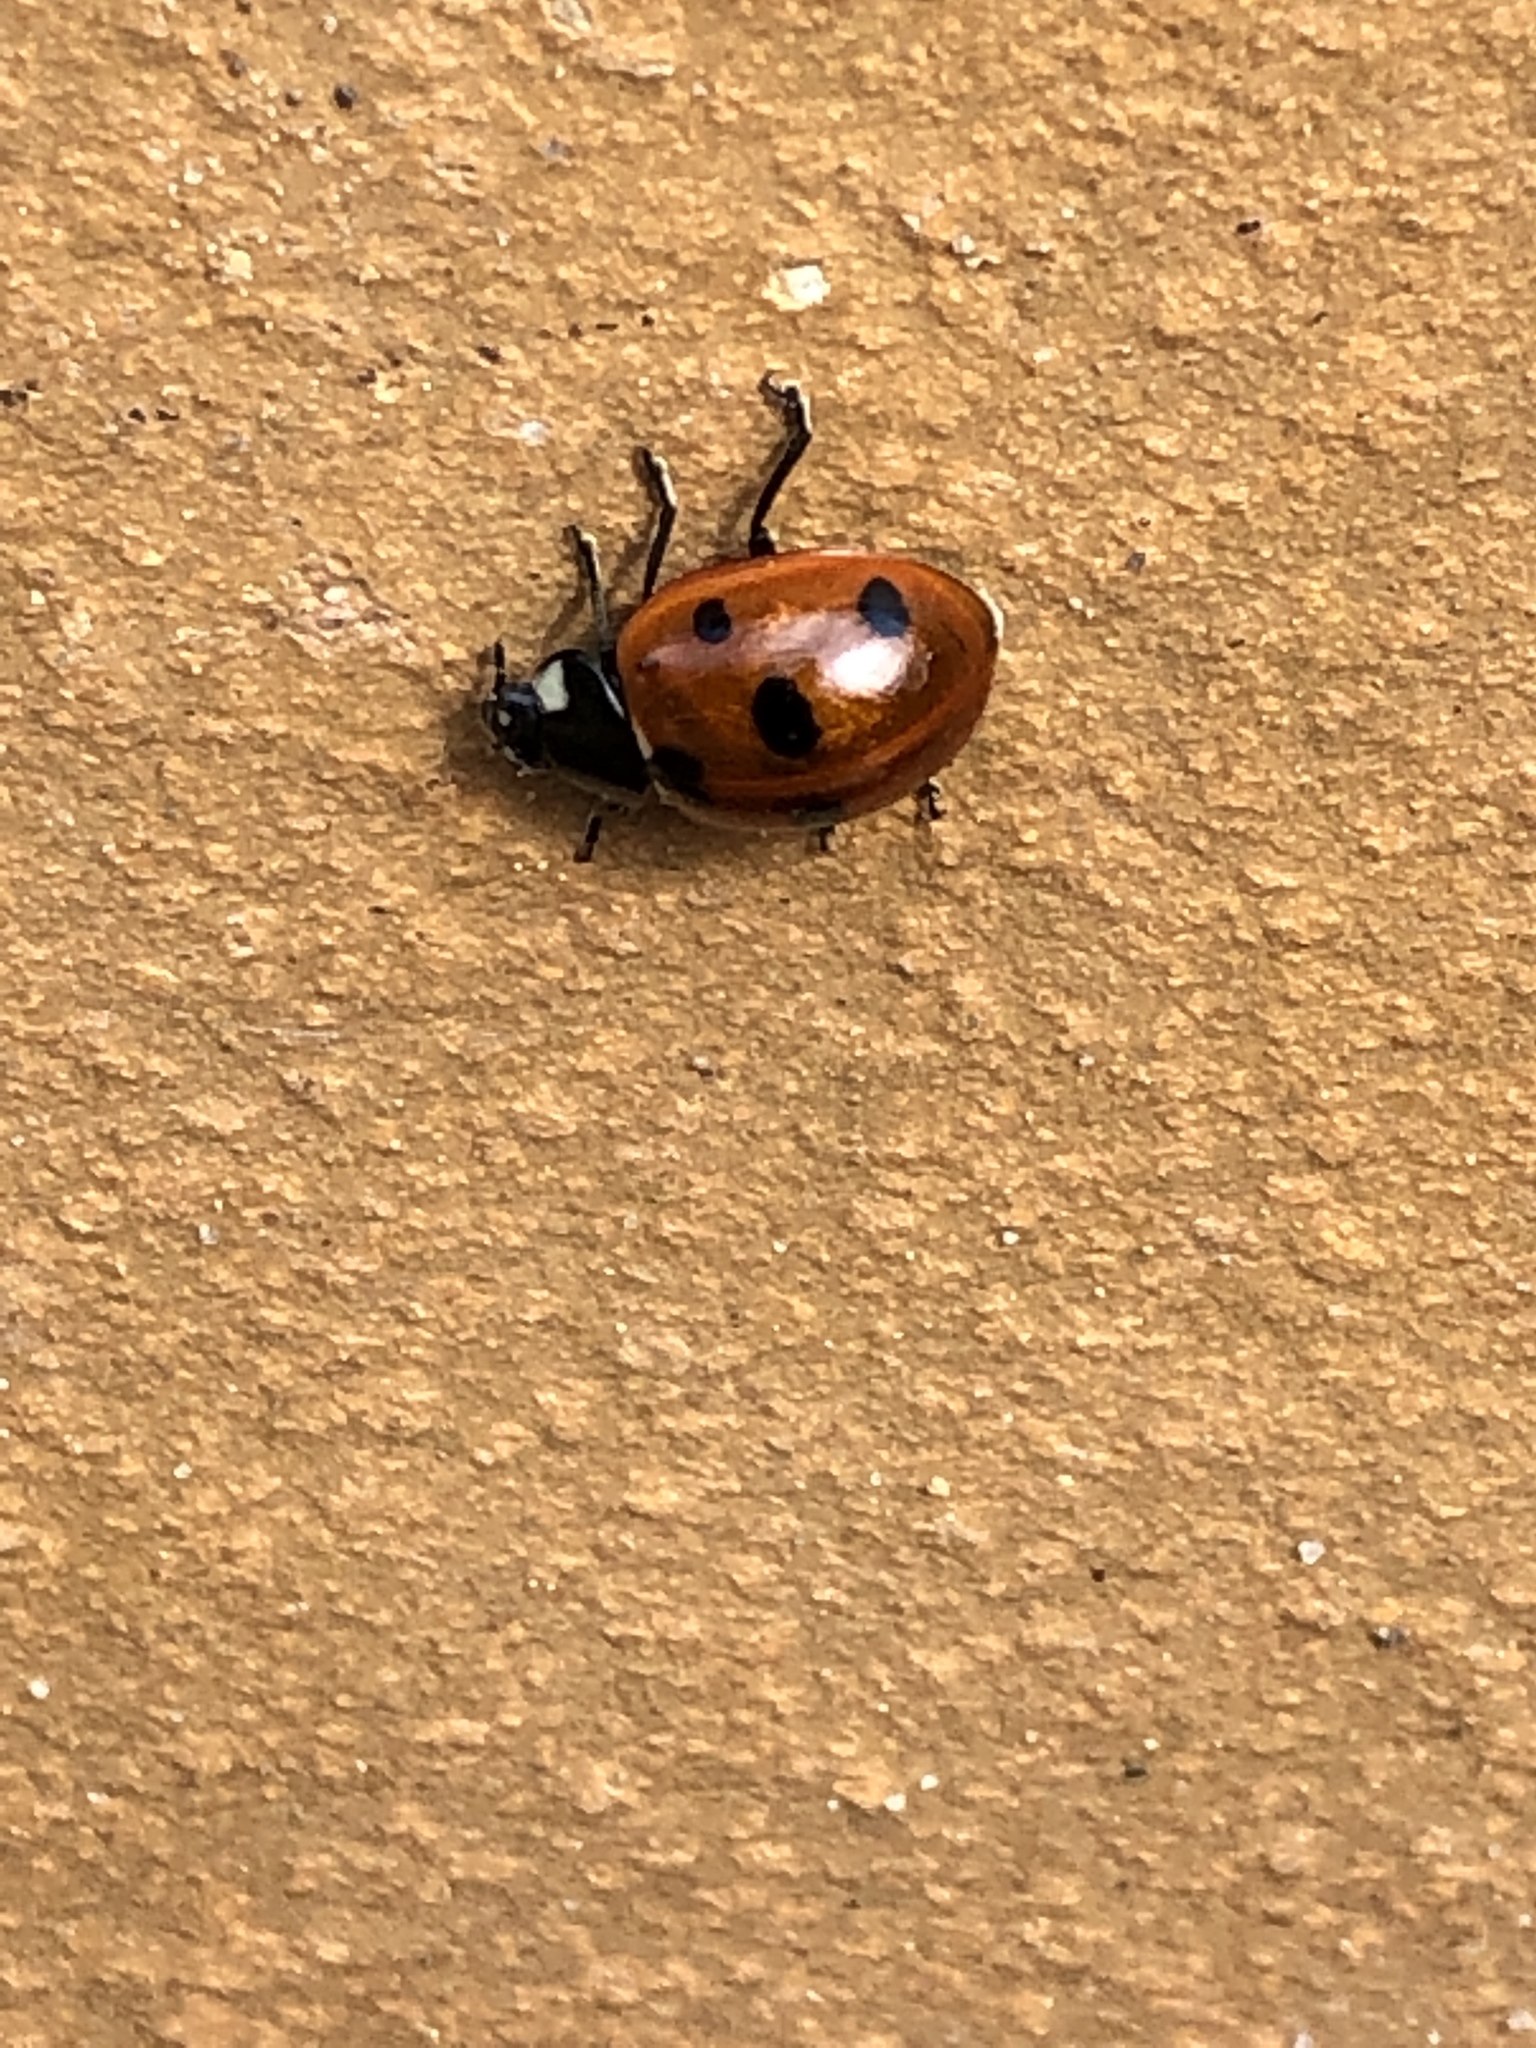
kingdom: Animalia
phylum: Arthropoda
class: Insecta
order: Coleoptera
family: Coccinellidae
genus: Coccinella
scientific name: Coccinella septempunctata
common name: Sevenspotted lady beetle
